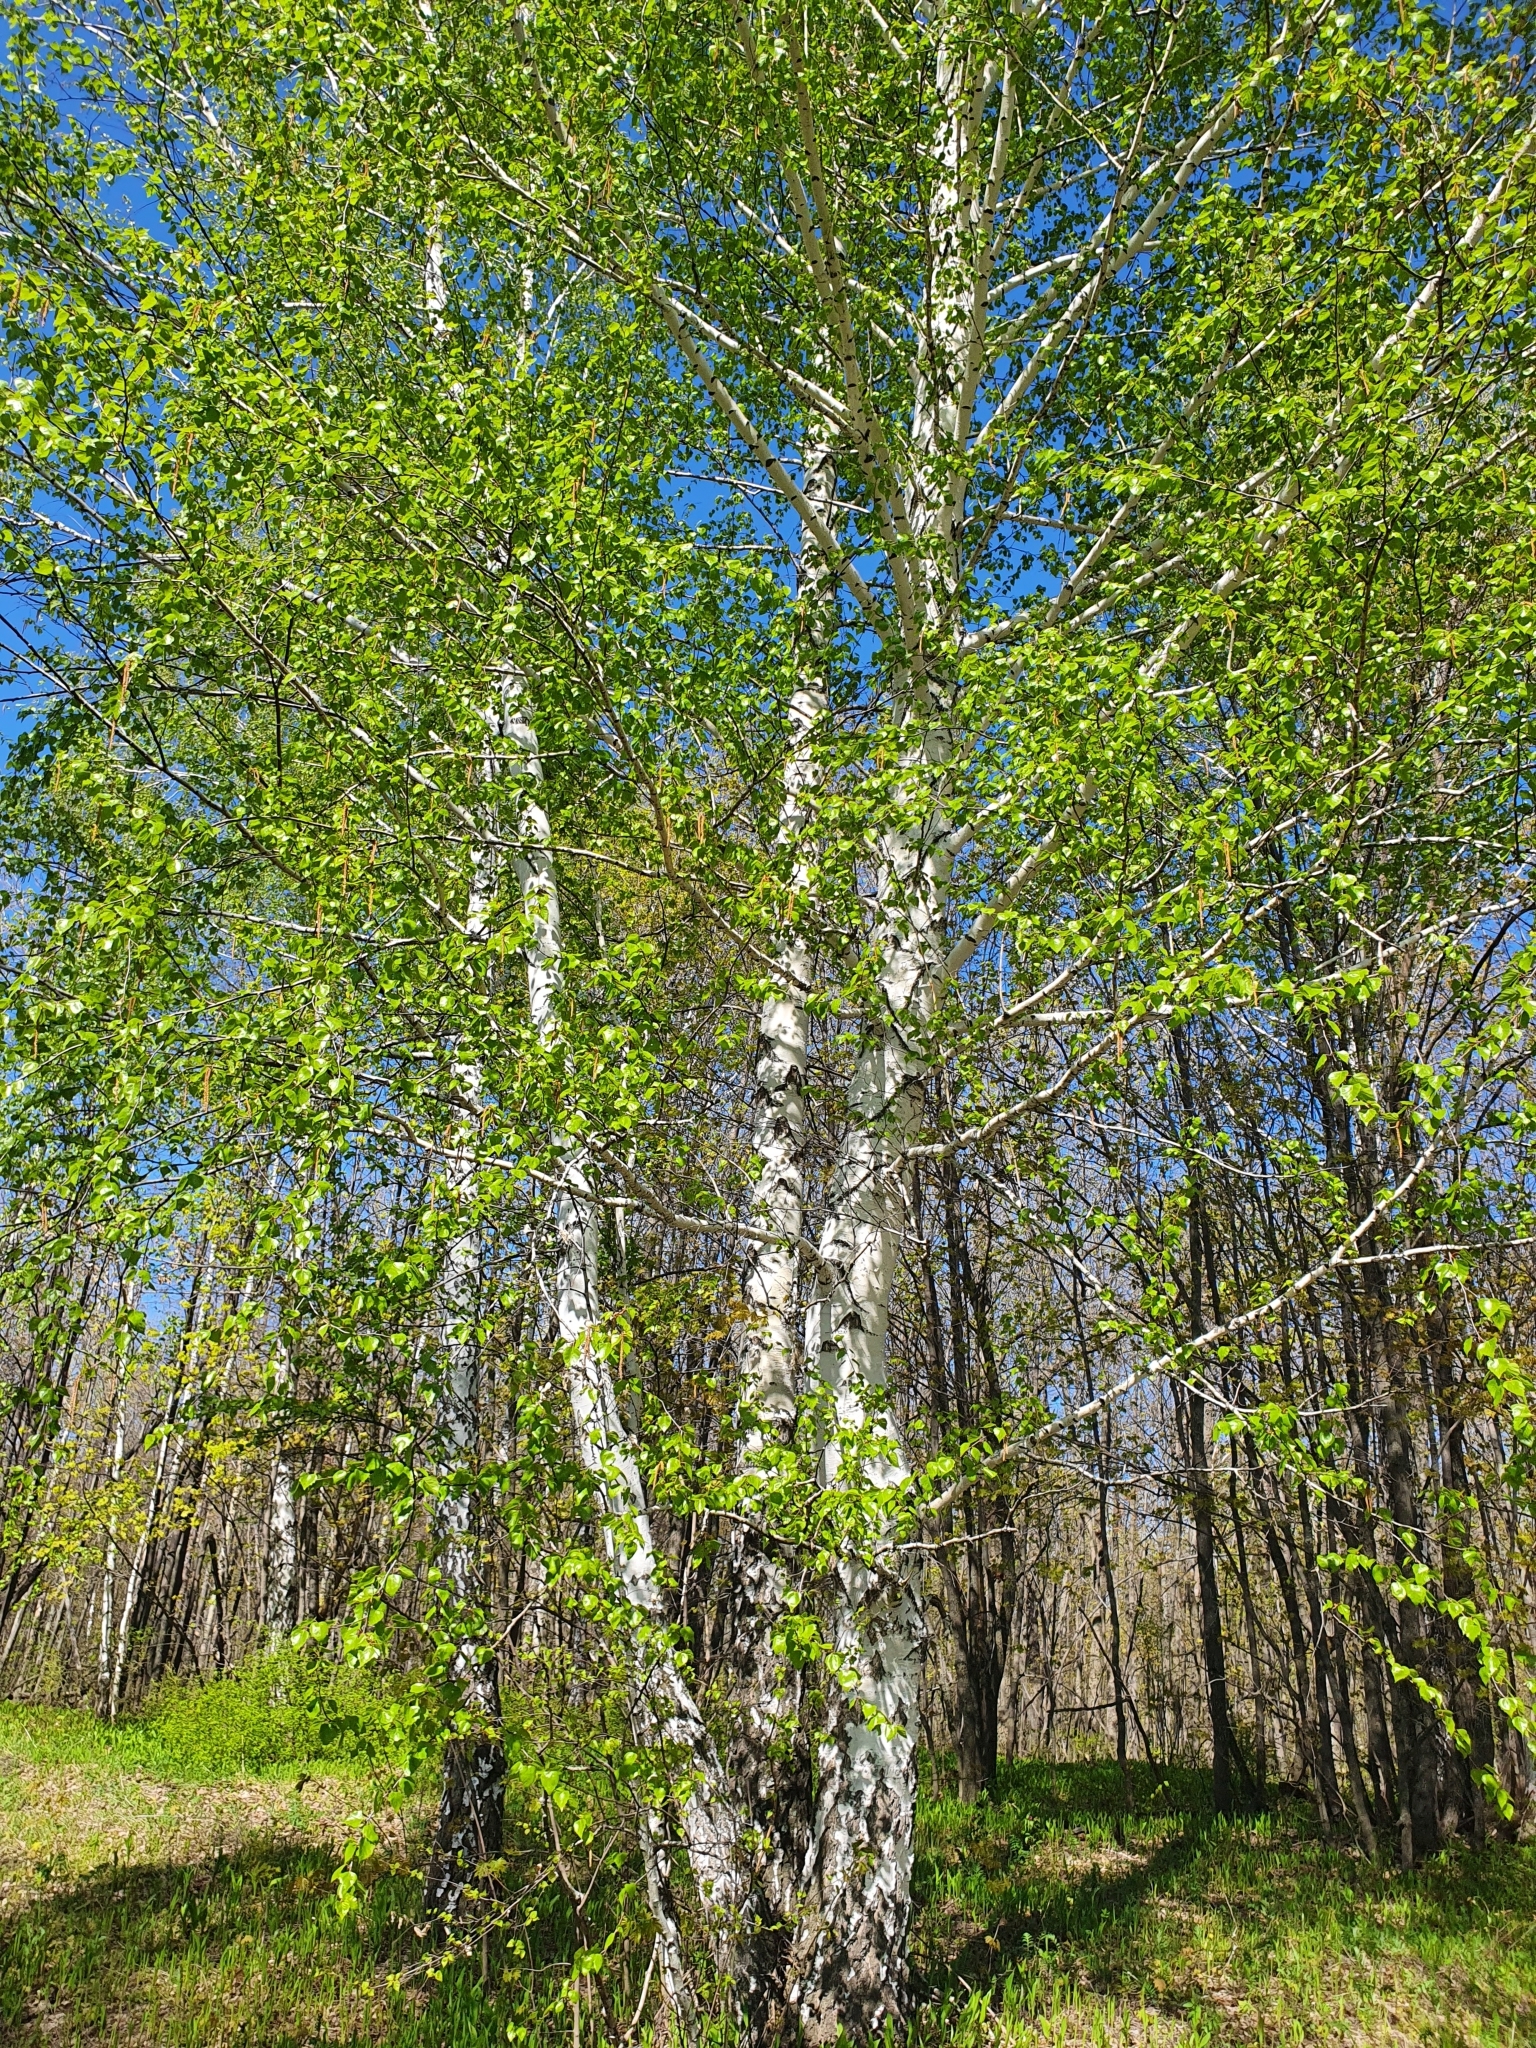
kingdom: Plantae
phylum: Tracheophyta
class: Magnoliopsida
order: Fagales
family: Betulaceae
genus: Betula
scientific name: Betula pendula
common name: Silver birch
